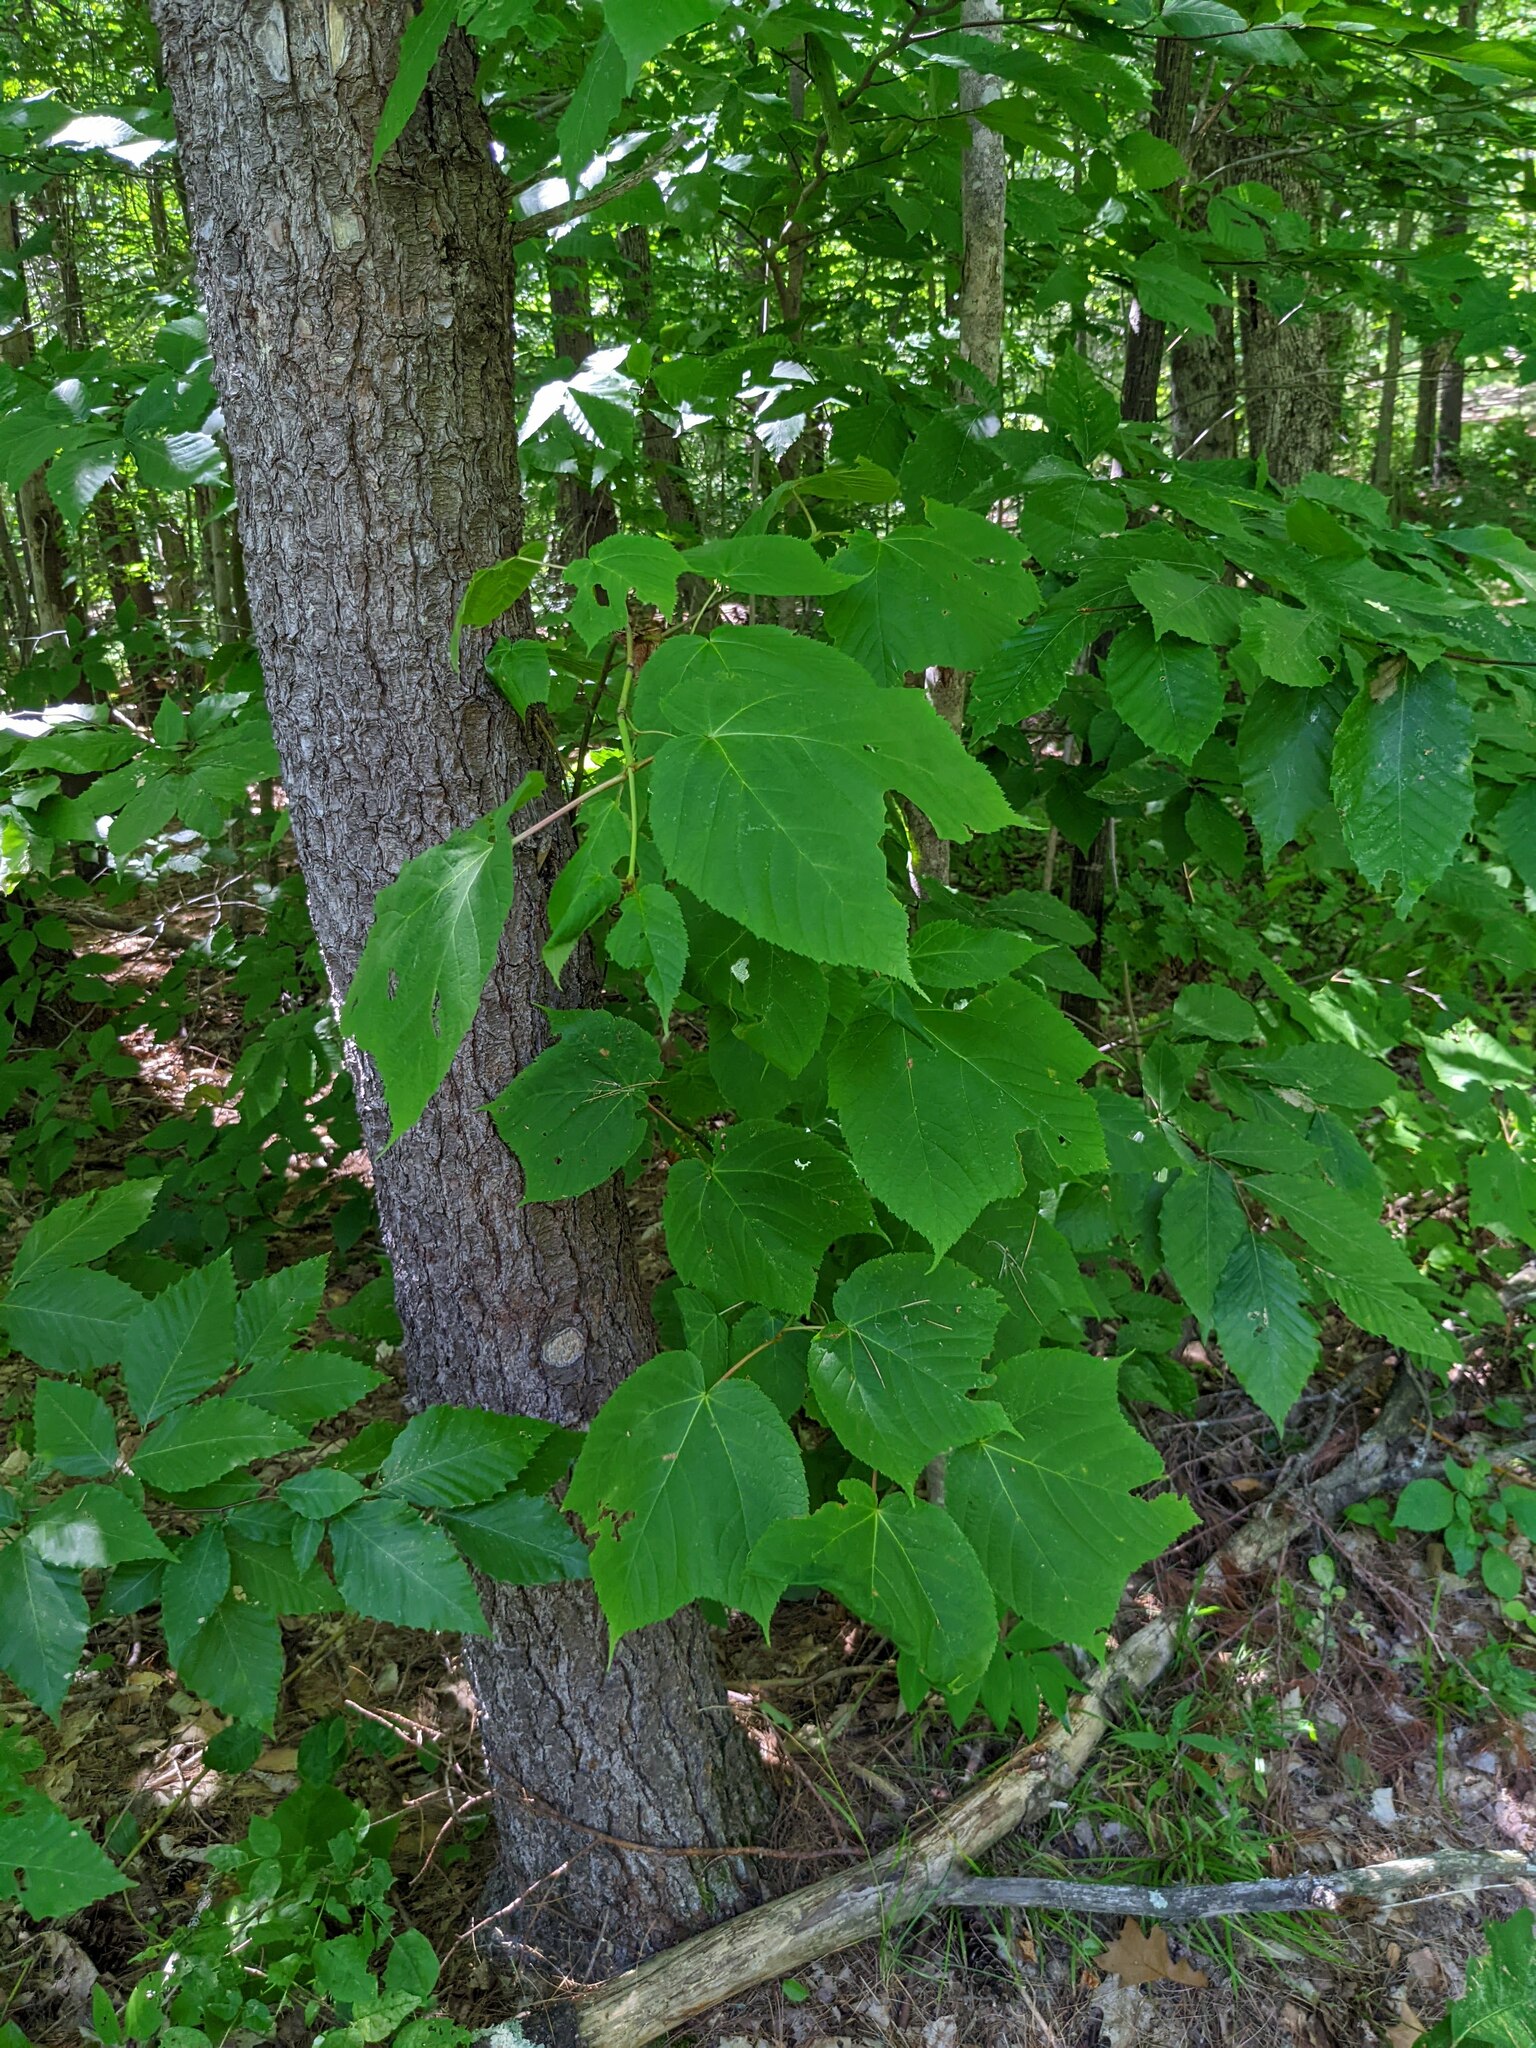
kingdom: Plantae
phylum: Tracheophyta
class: Magnoliopsida
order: Sapindales
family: Sapindaceae
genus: Acer
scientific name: Acer pensylvanicum
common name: Moosewood
